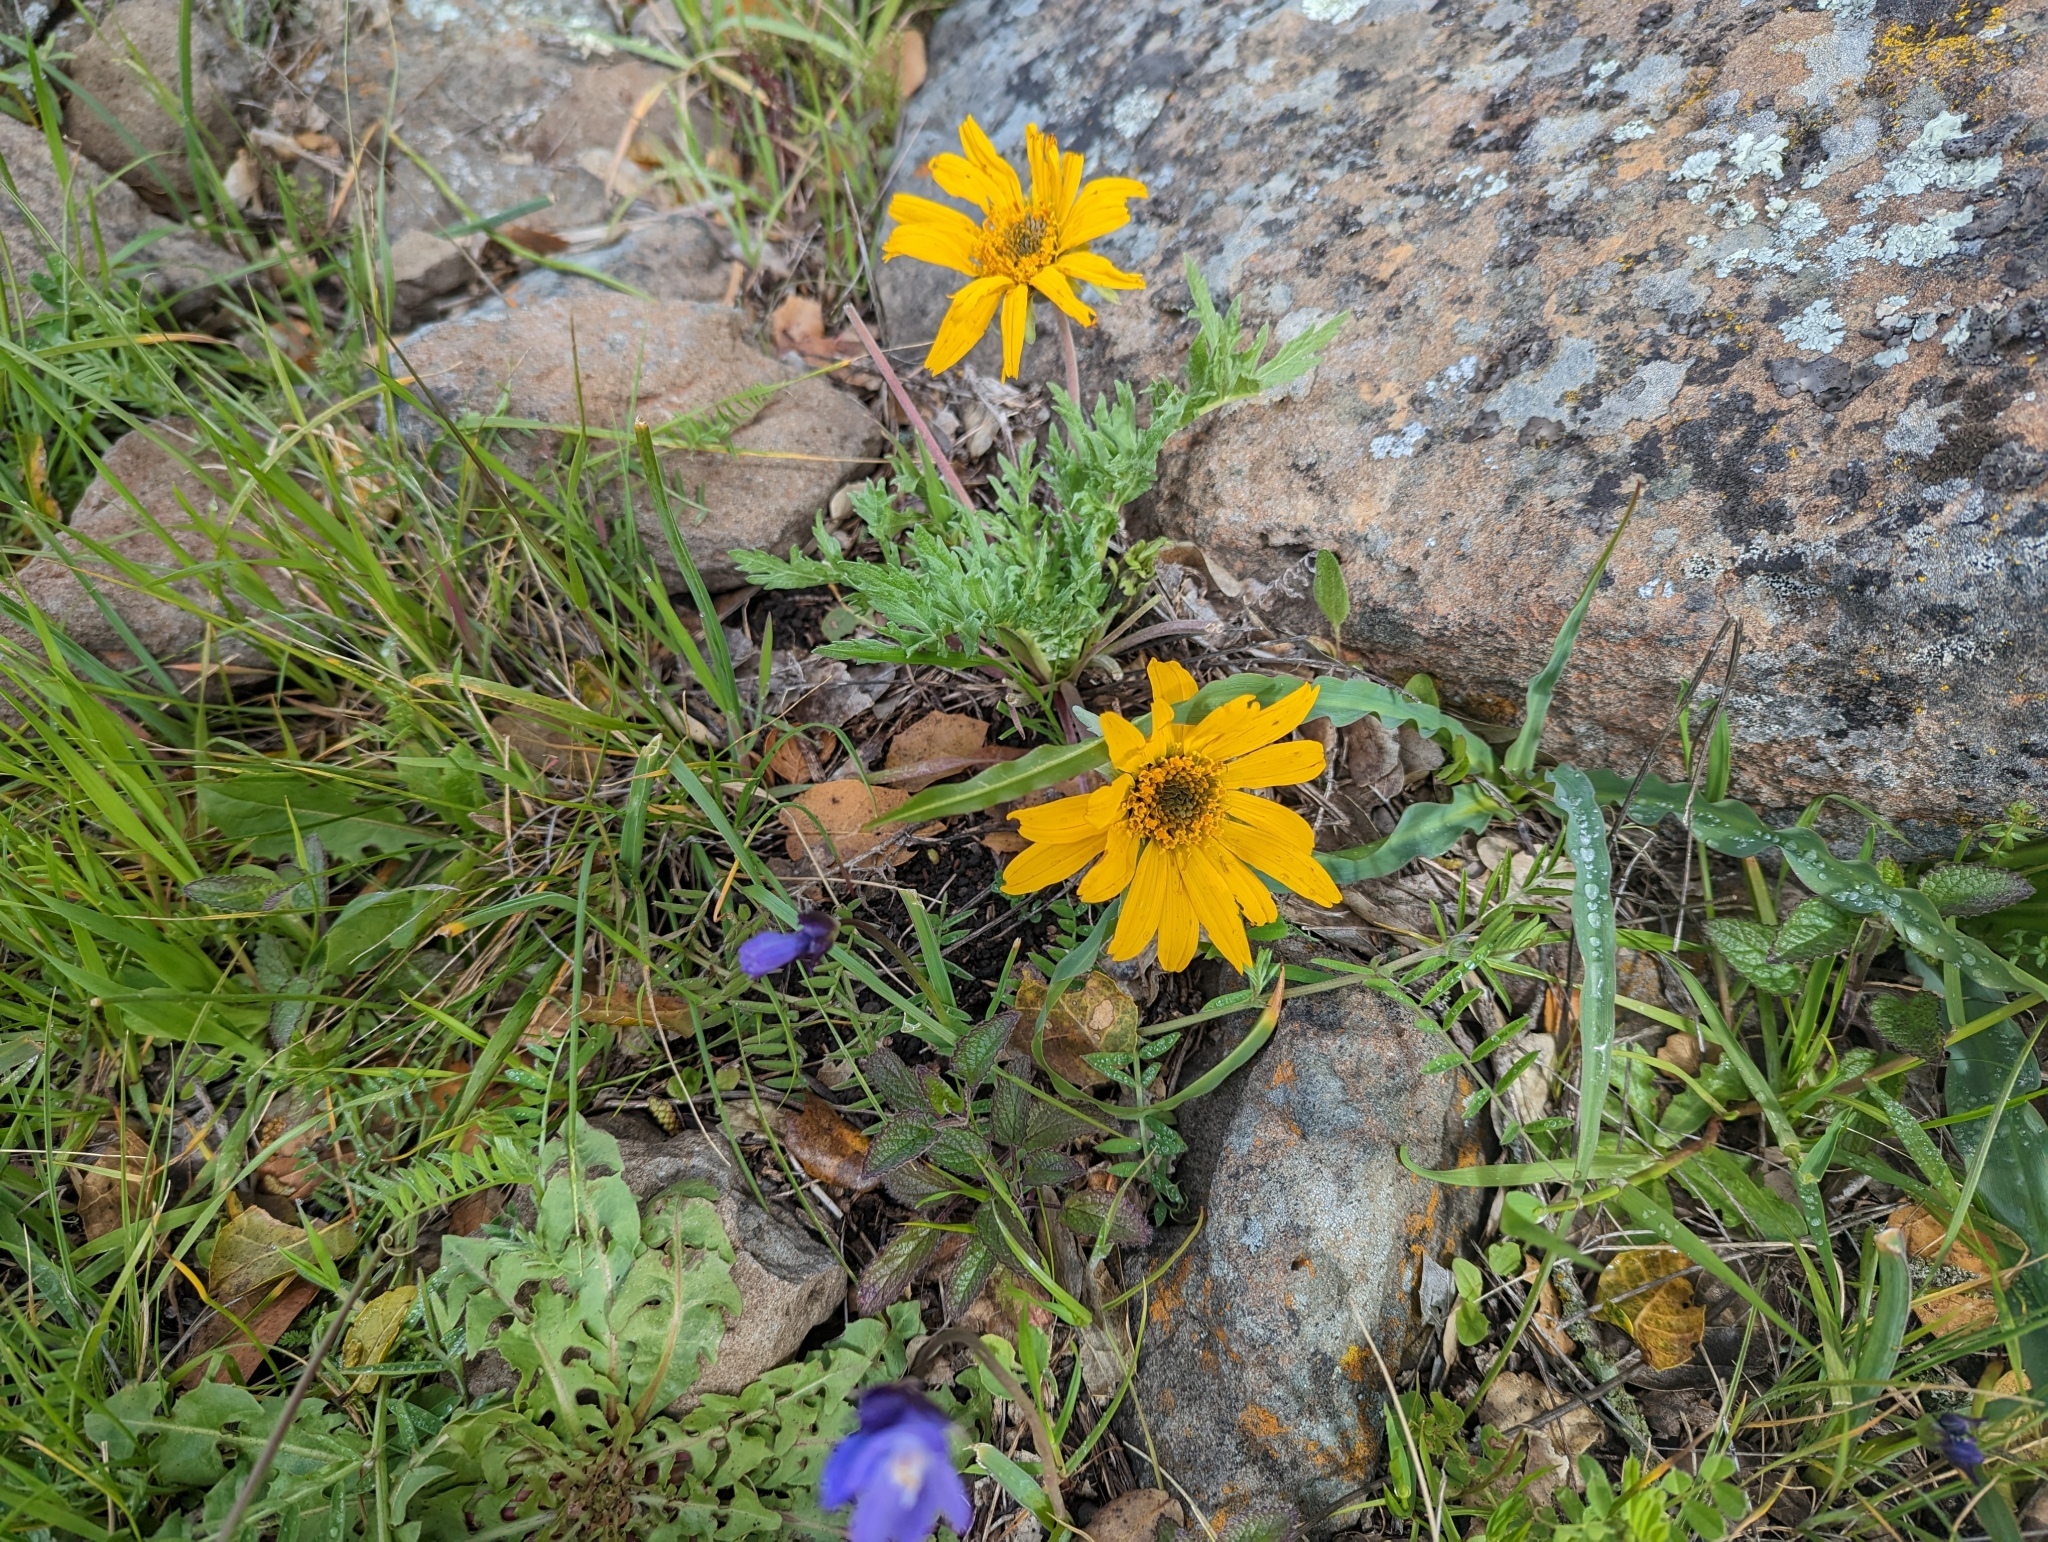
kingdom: Plantae
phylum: Tracheophyta
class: Magnoliopsida
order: Asterales
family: Asteraceae
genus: Balsamorhiza
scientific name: Balsamorhiza macrolepis
